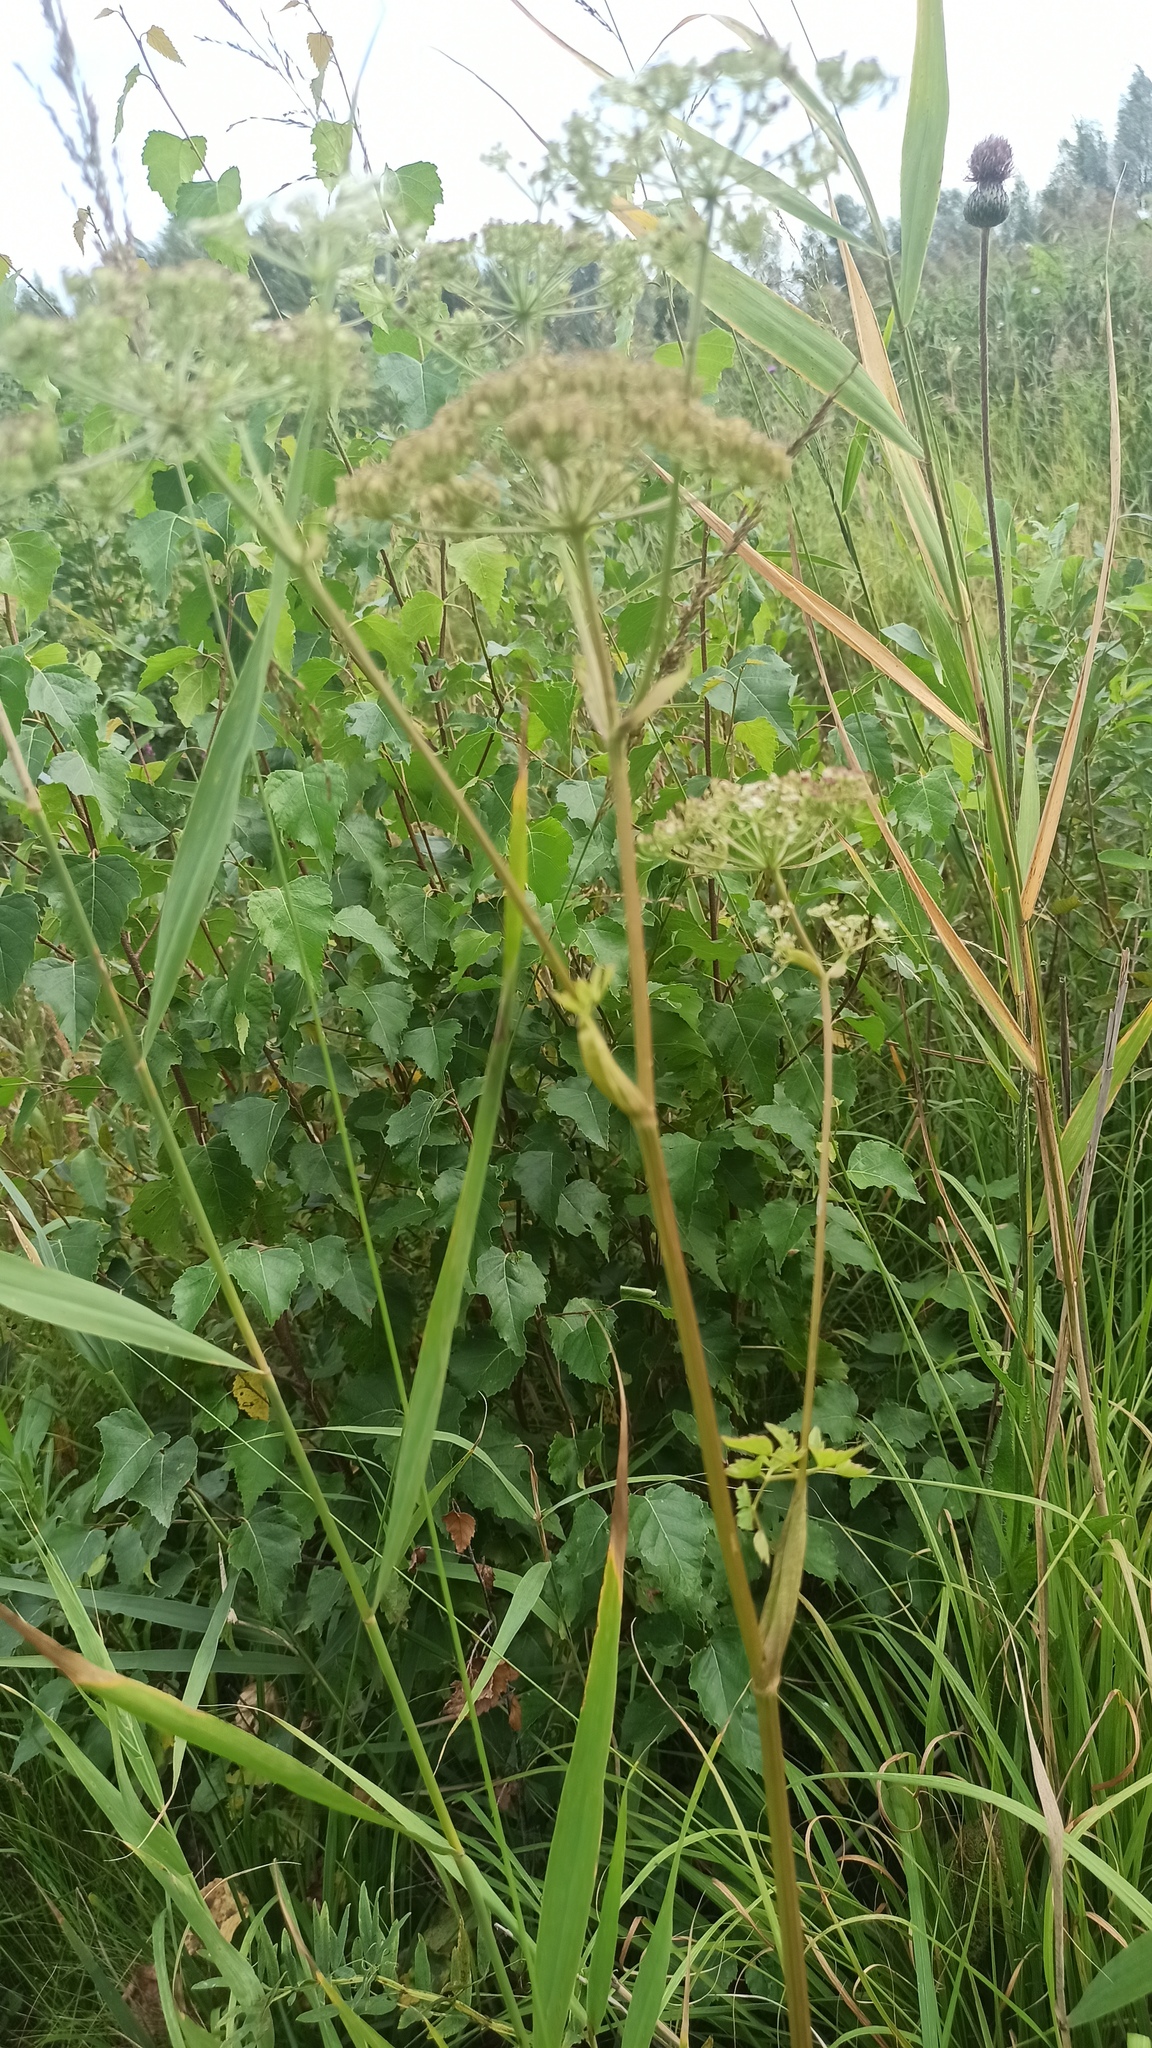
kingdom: Plantae
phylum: Tracheophyta
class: Magnoliopsida
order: Apiales
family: Apiaceae
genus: Angelica
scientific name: Angelica sylvestris
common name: Wild angelica
